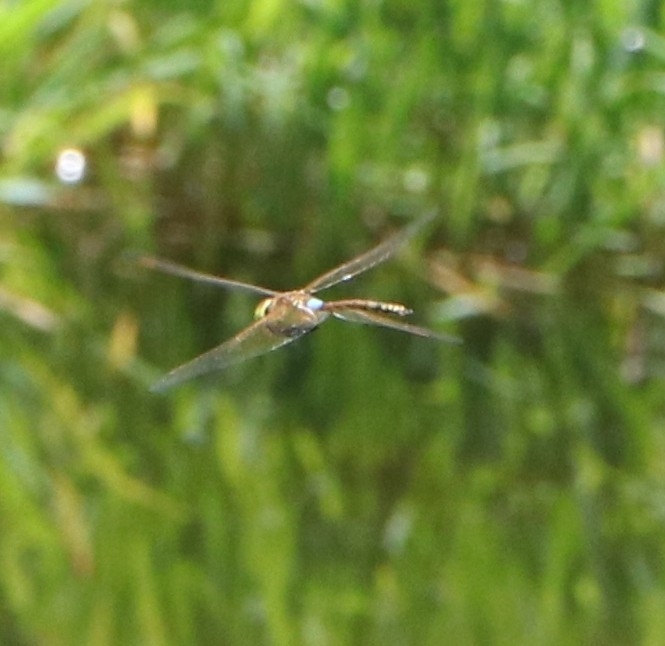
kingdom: Animalia
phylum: Arthropoda
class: Insecta
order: Odonata
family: Aeshnidae
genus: Anax
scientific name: Anax ephippiger
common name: Vagrant emperor
